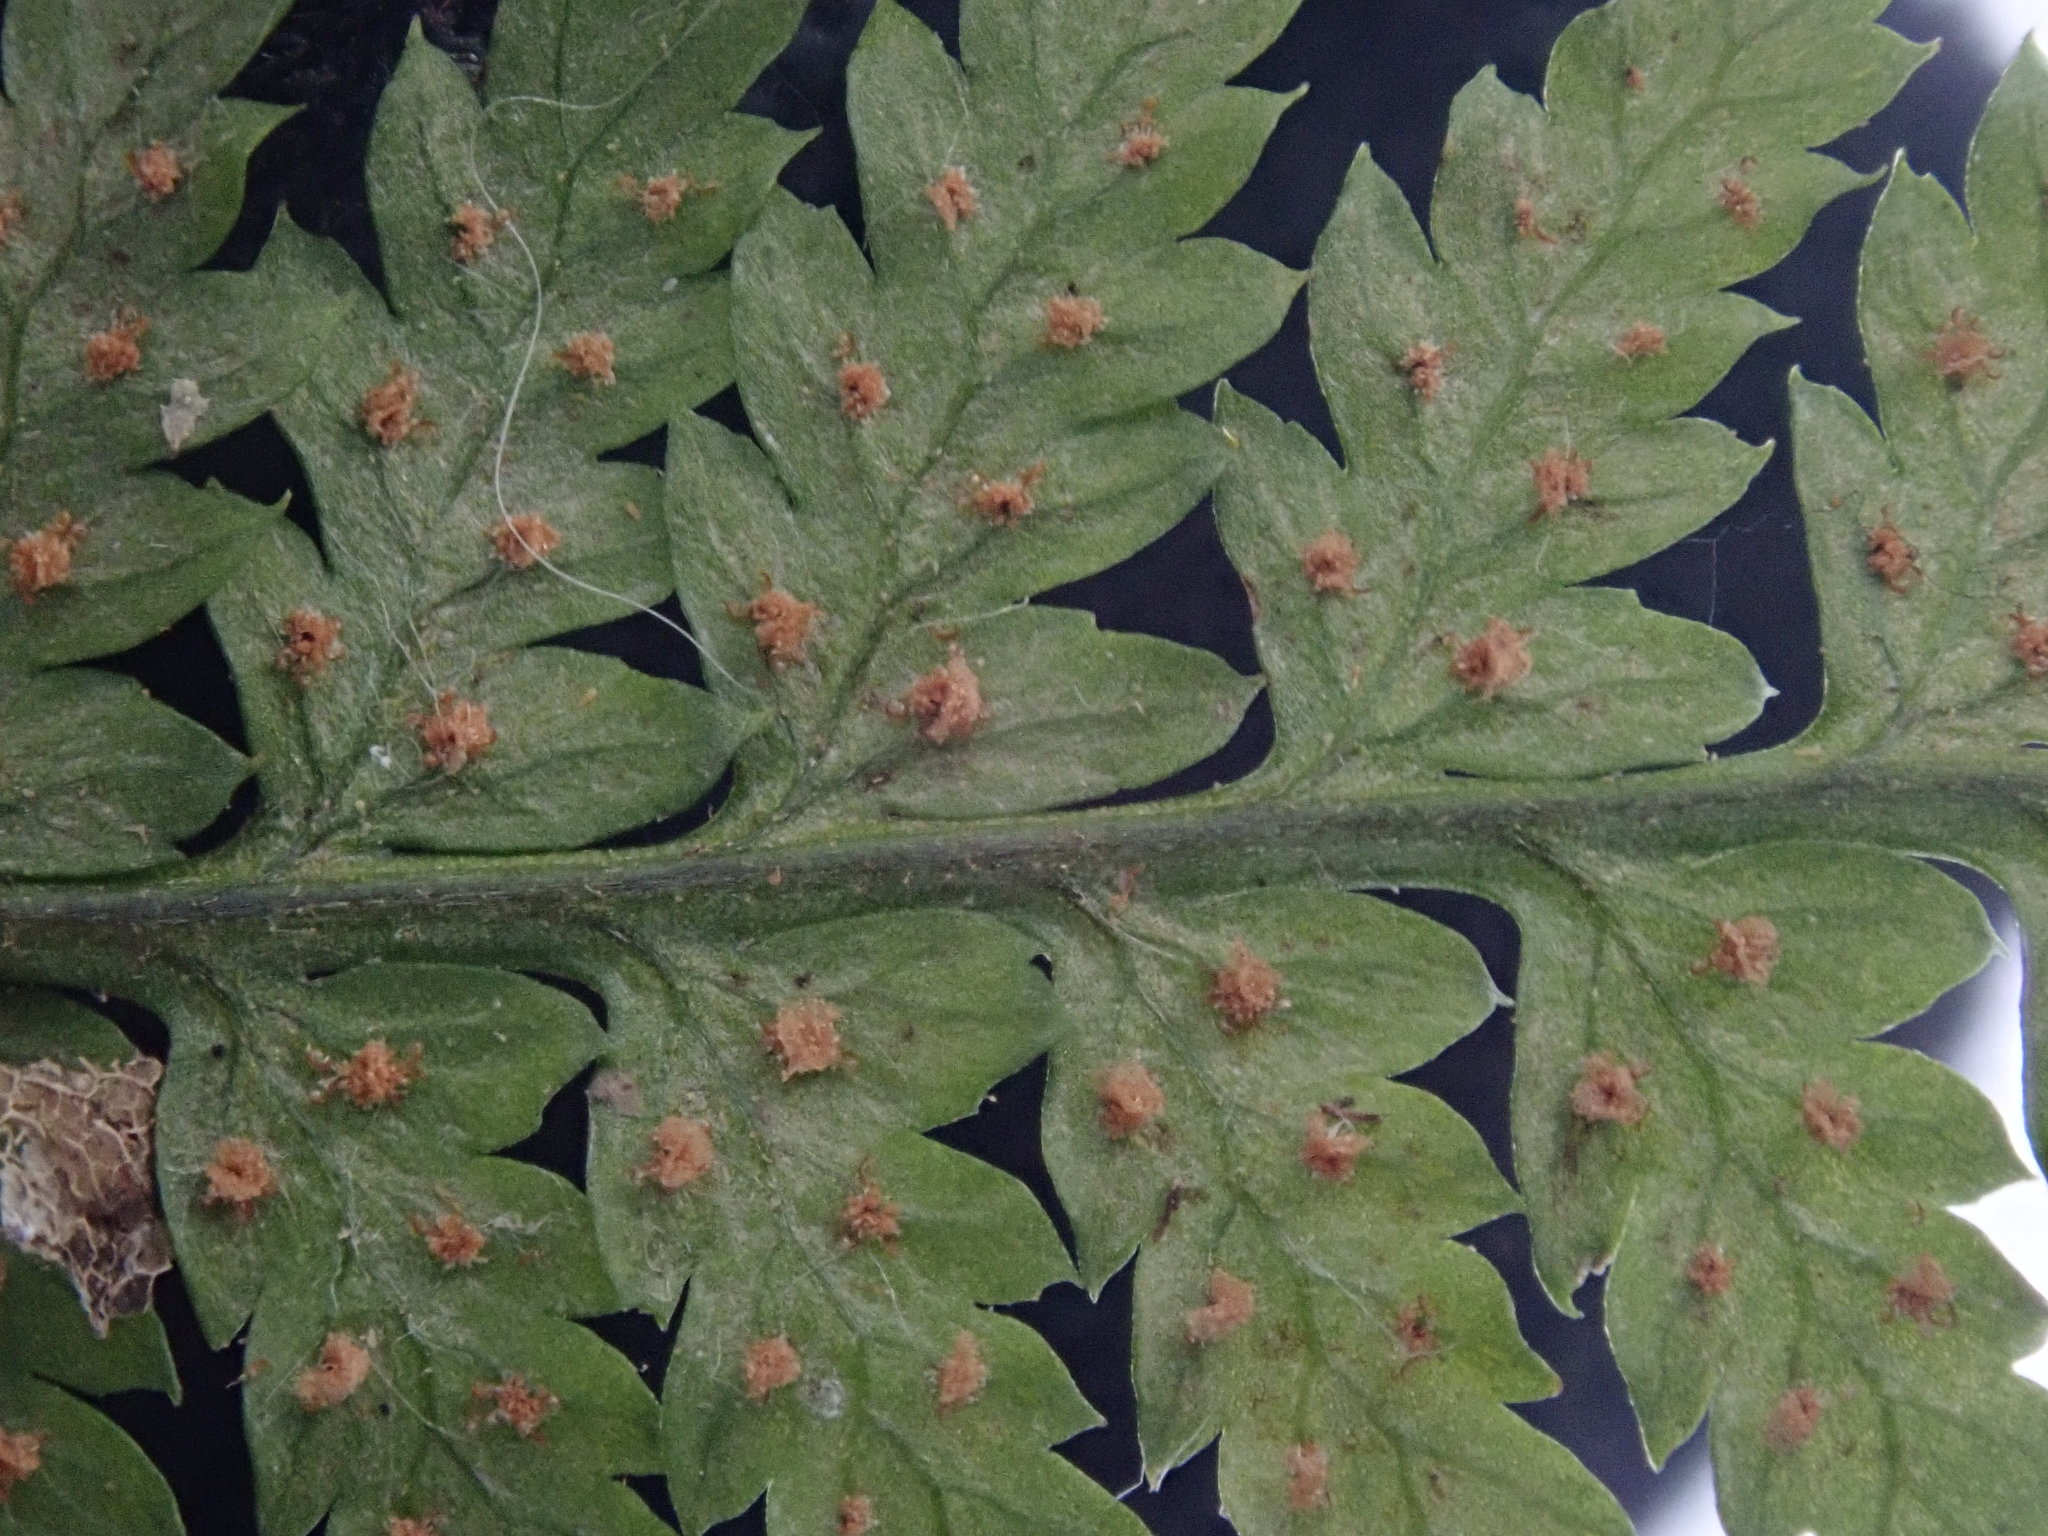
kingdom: Plantae
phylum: Tracheophyta
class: Polypodiopsida
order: Polypodiales
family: Dryopteridaceae
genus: Dryopteris
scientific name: Dryopteris intermedia
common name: Evergreen wood fern
